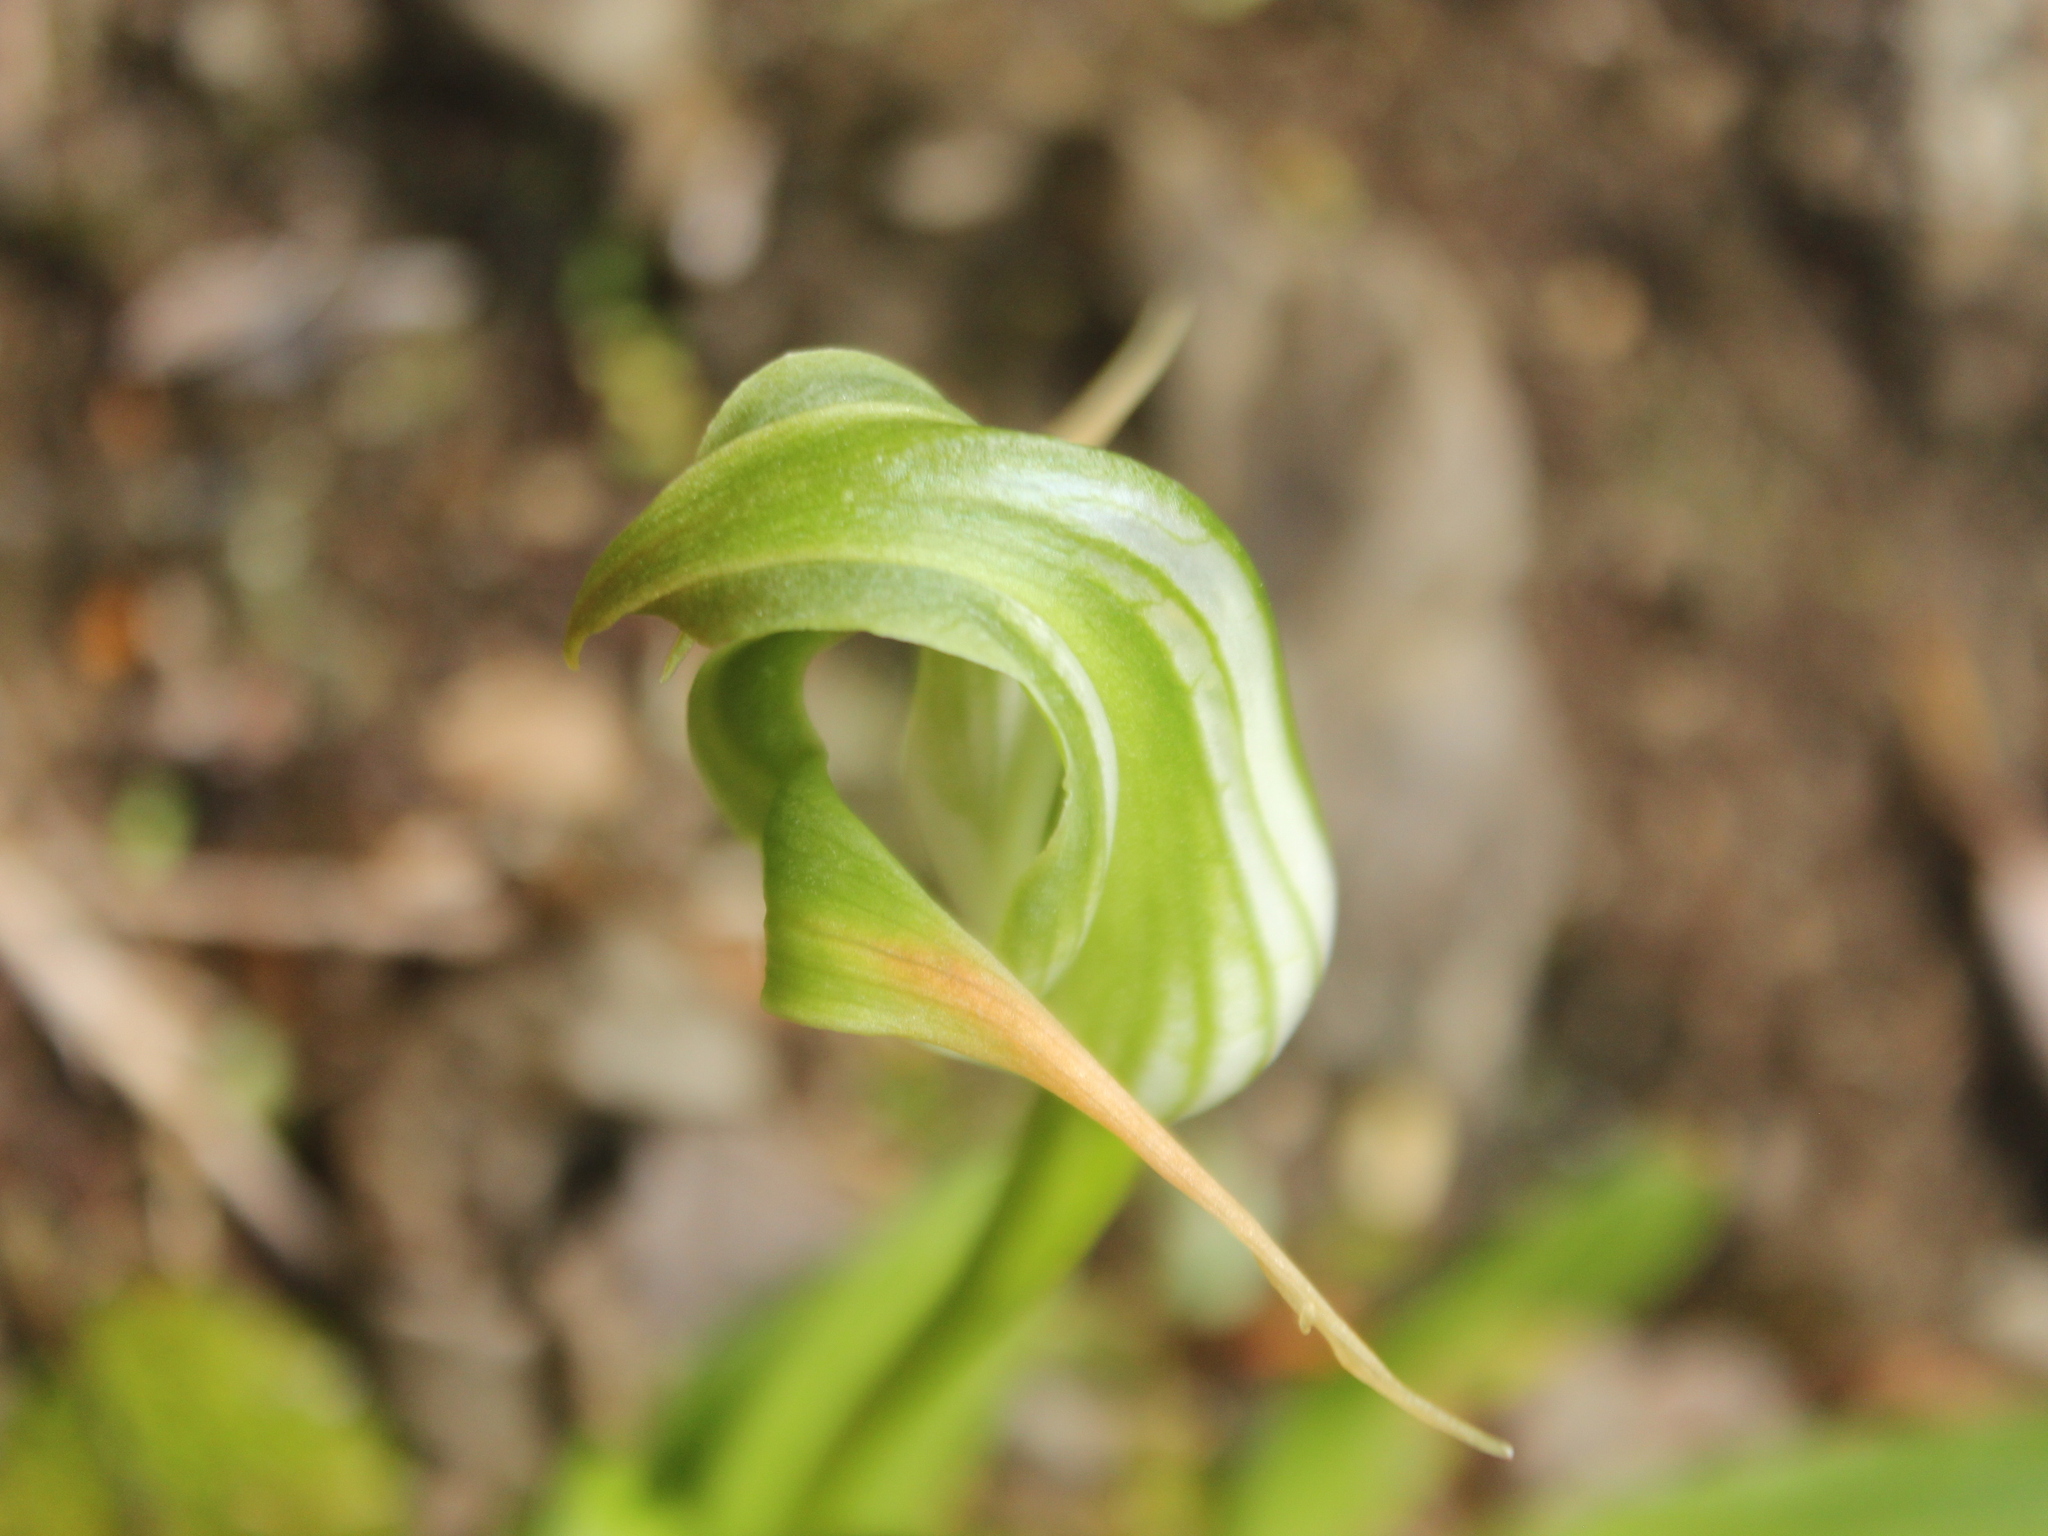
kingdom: Plantae
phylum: Tracheophyta
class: Liliopsida
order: Asparagales
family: Orchidaceae
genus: Pterostylis
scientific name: Pterostylis patens
